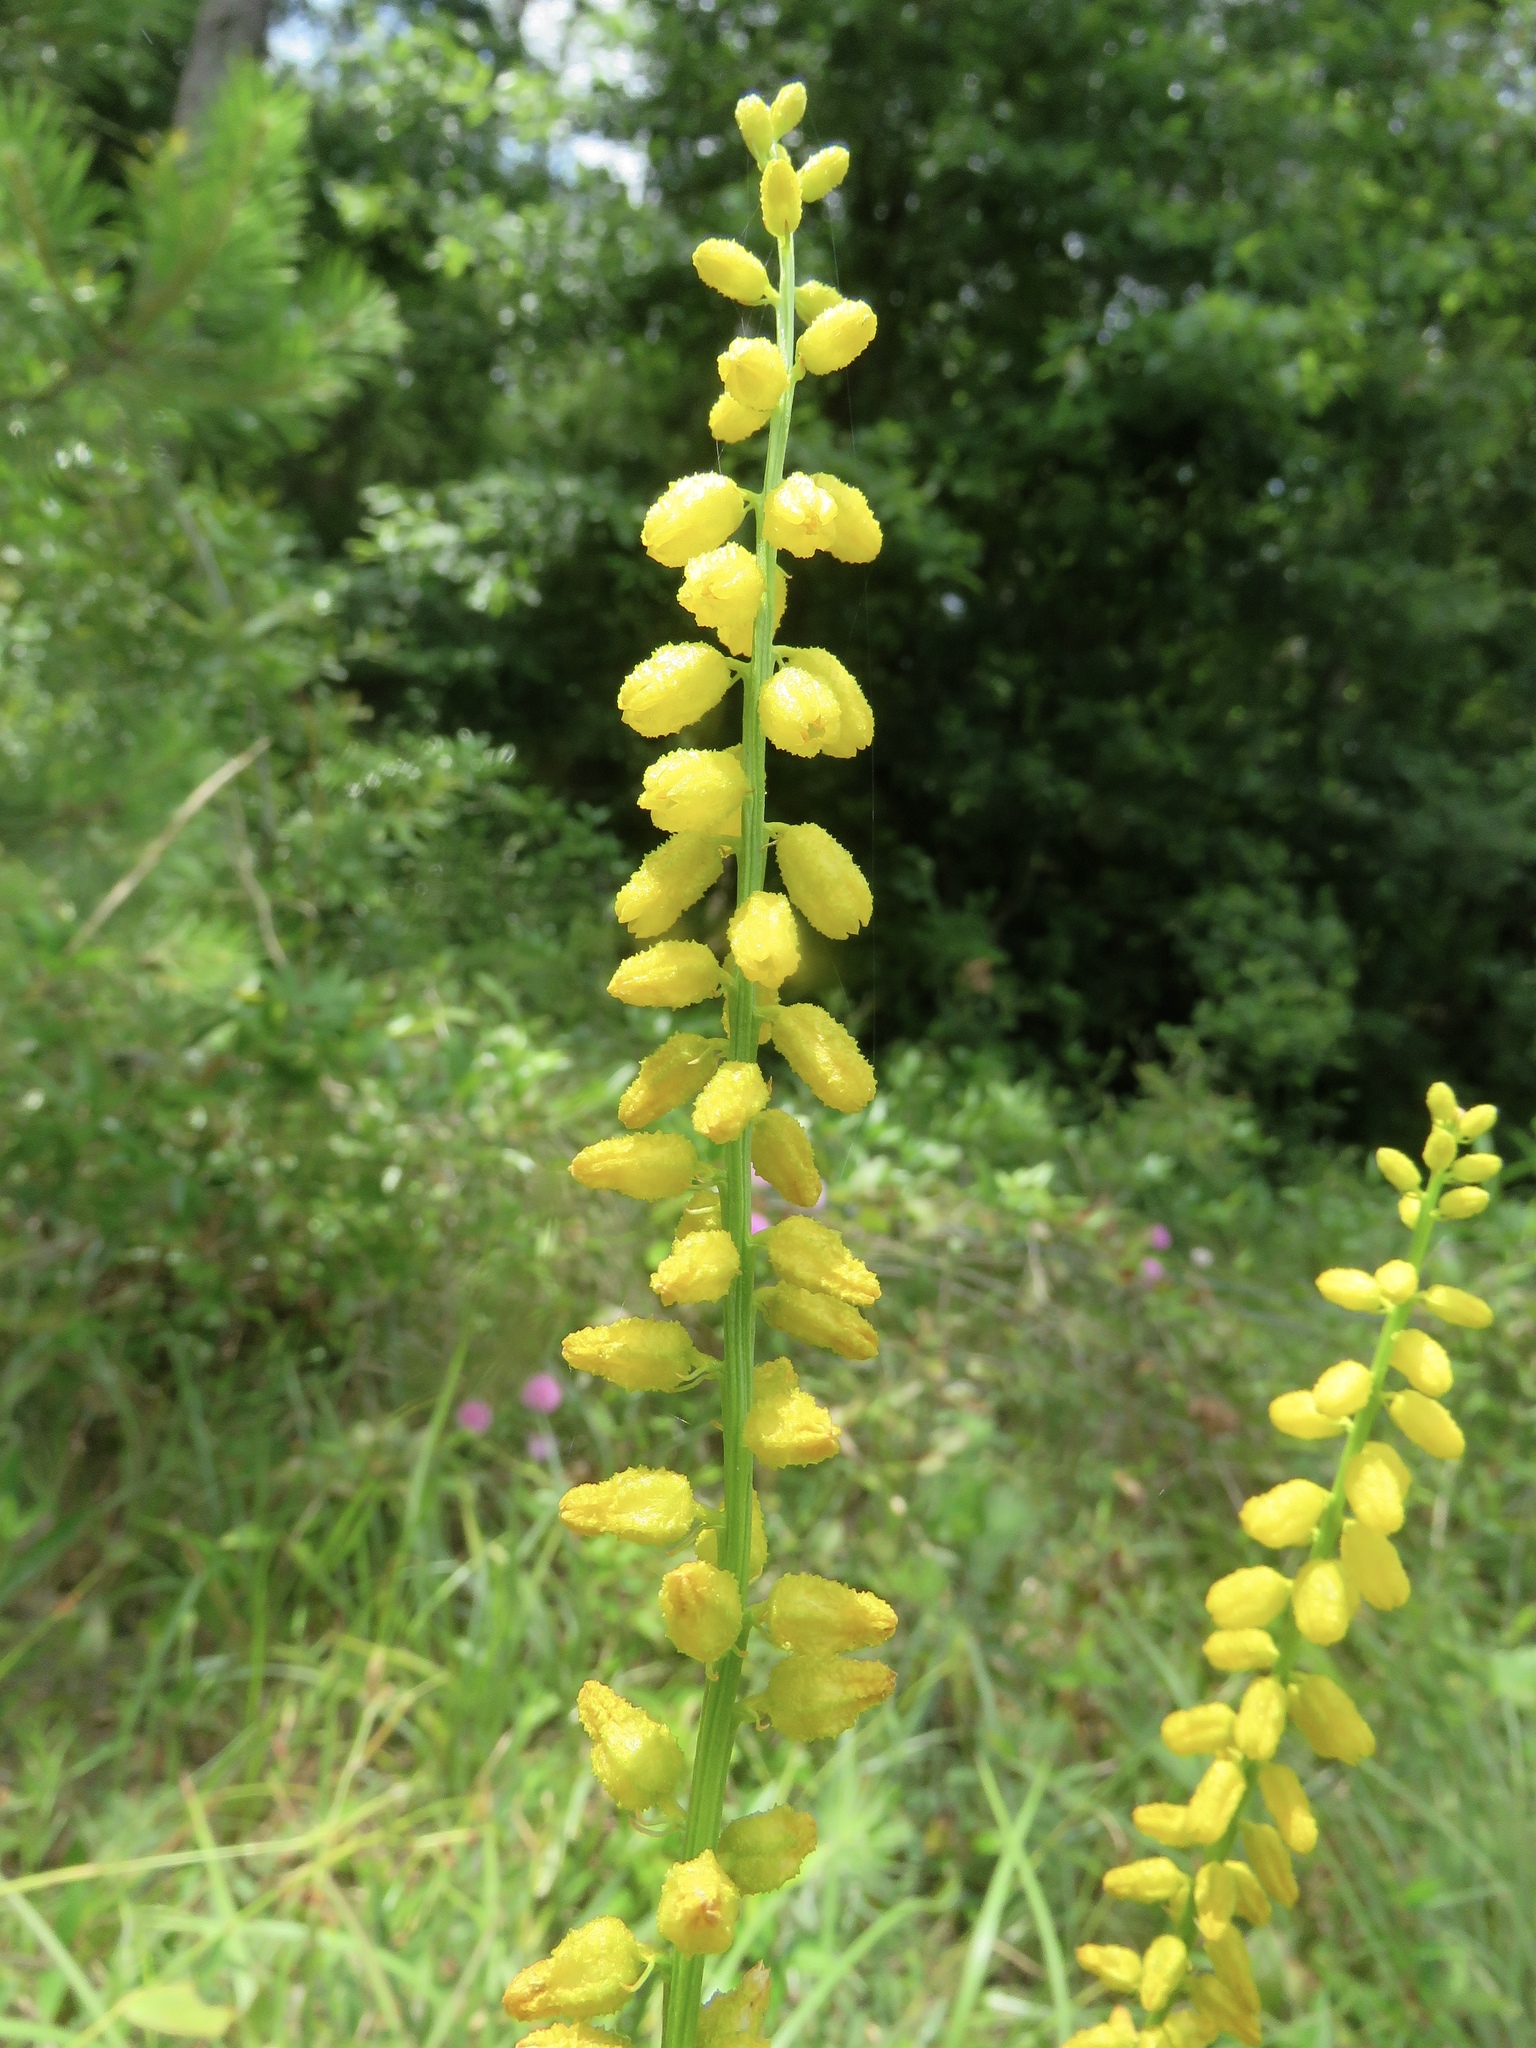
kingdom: Plantae
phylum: Tracheophyta
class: Liliopsida
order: Dioscoreales
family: Nartheciaceae
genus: Aletris
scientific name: Aletris aurea
